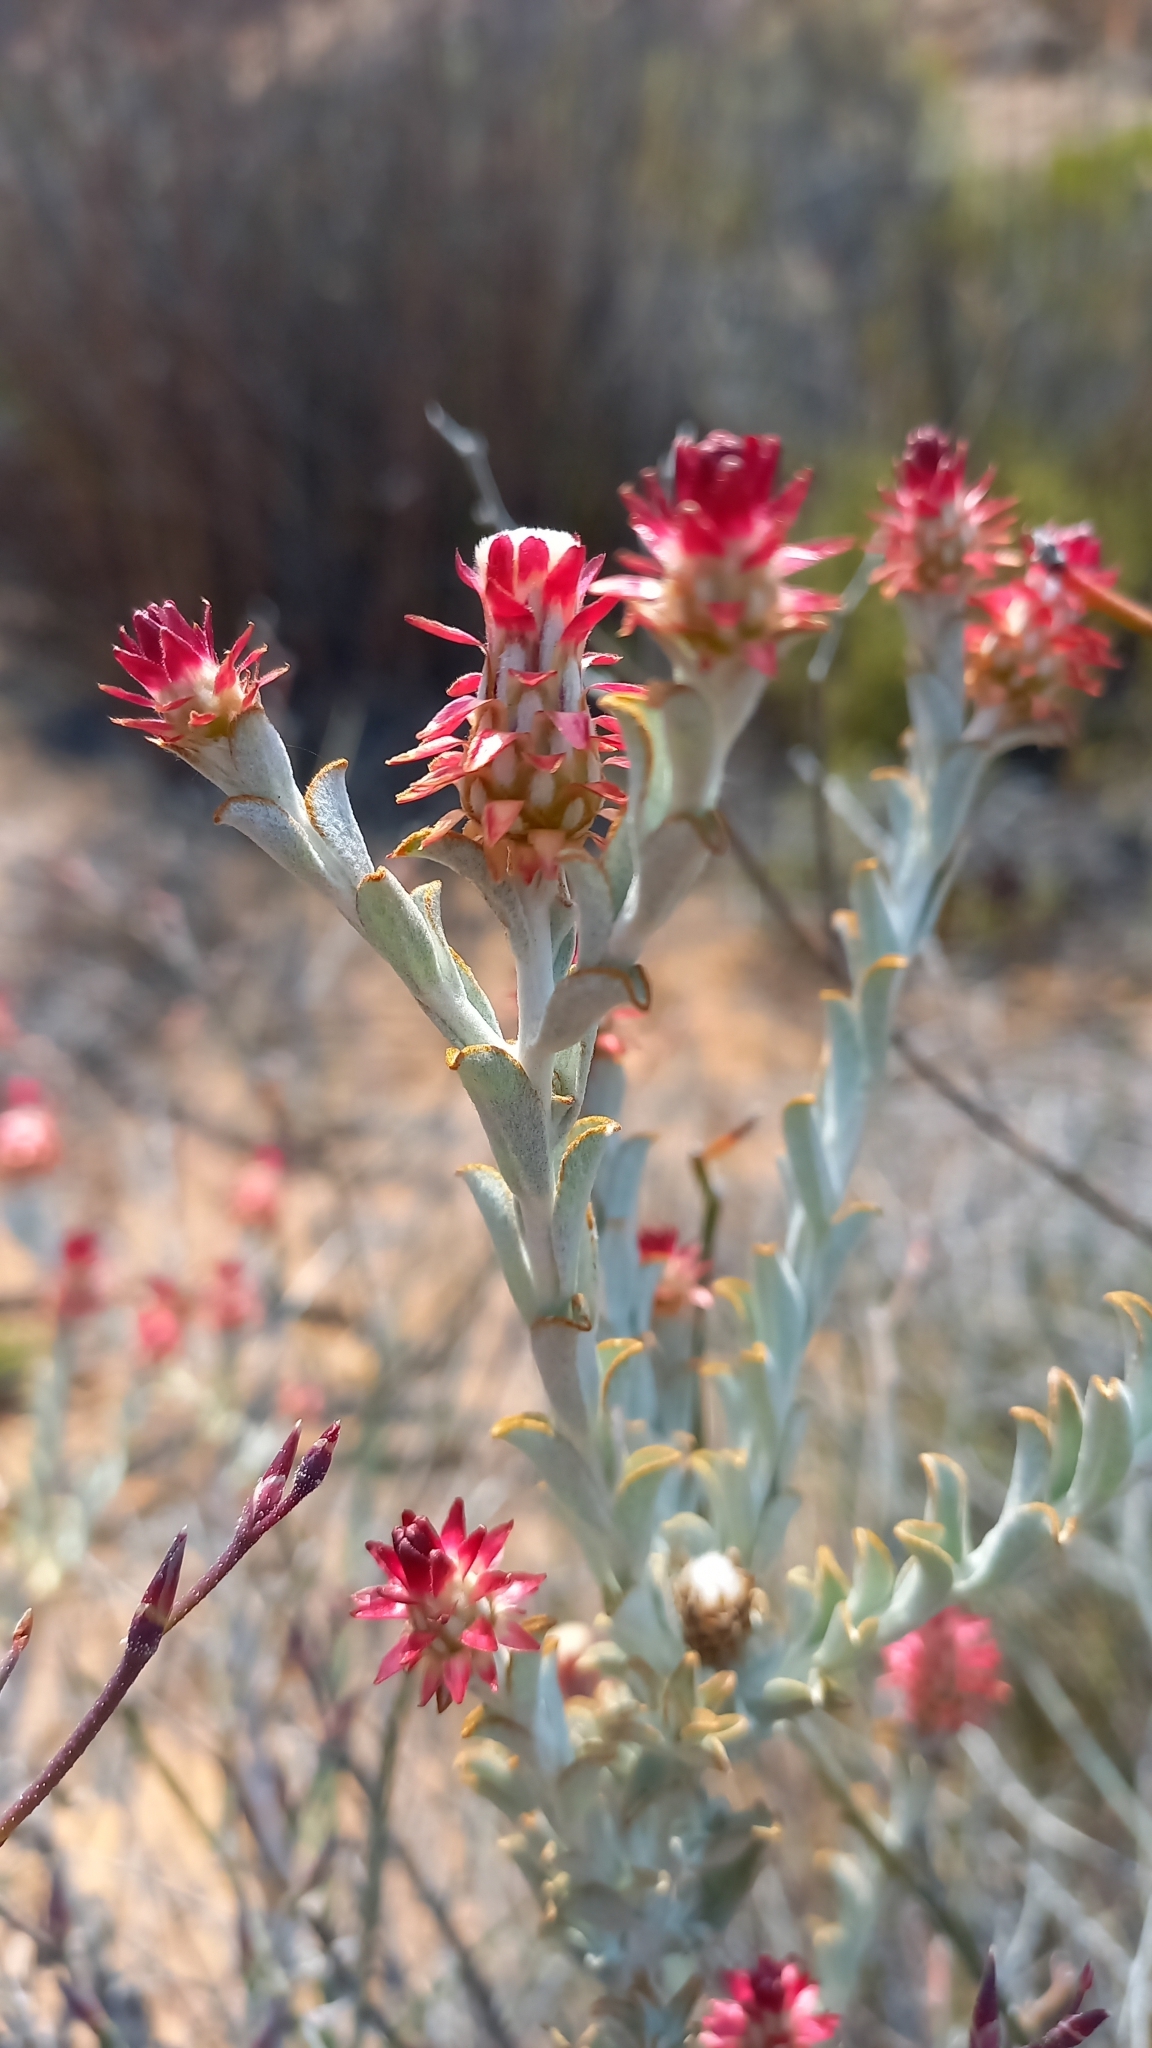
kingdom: Plantae
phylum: Tracheophyta
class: Magnoliopsida
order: Asterales
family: Asteraceae
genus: Syncarpha
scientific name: Syncarpha dregeana
